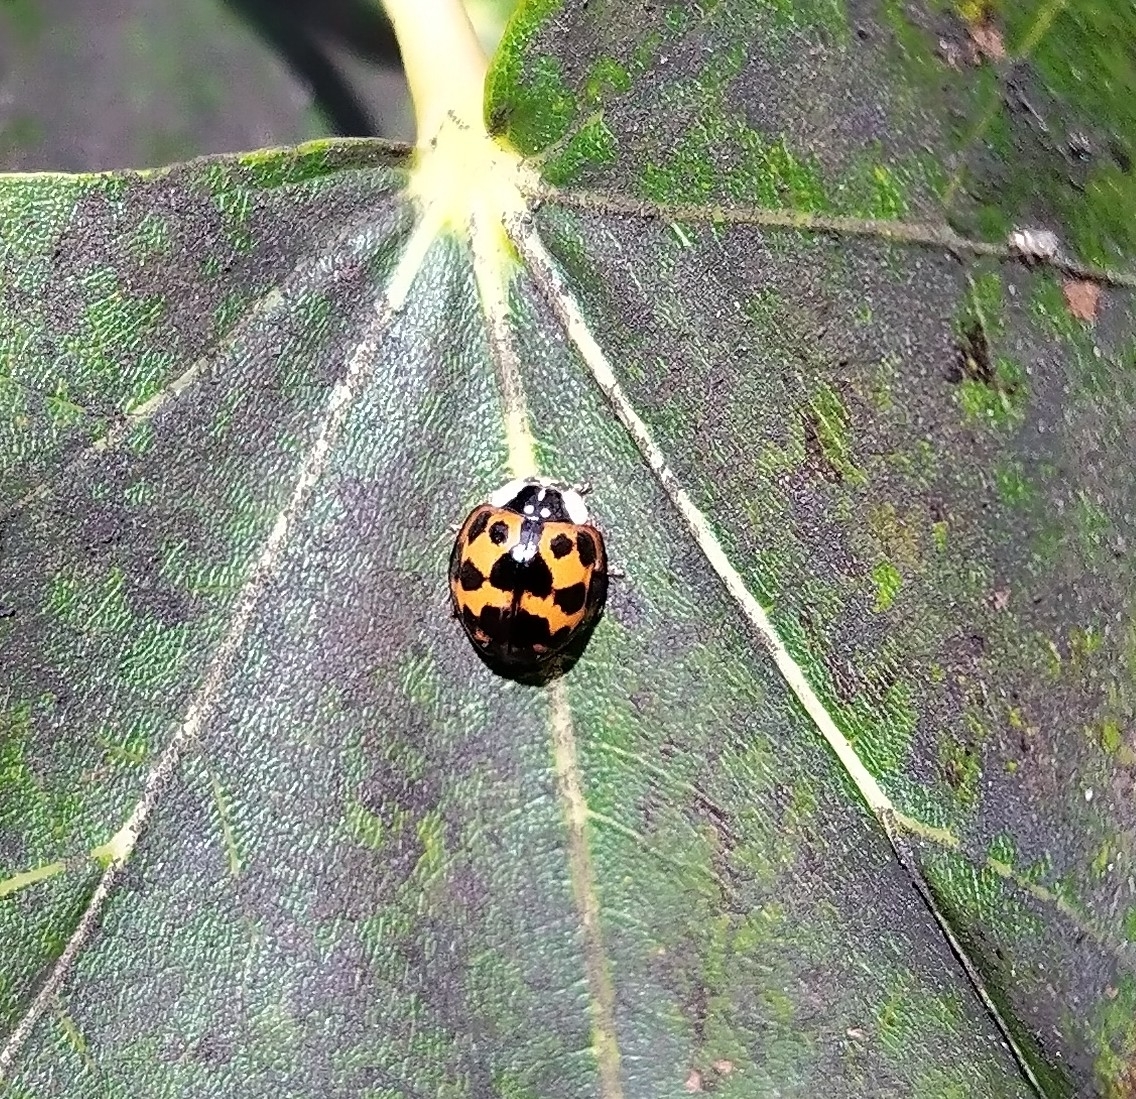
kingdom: Animalia
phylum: Arthropoda
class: Insecta
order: Coleoptera
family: Coccinellidae
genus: Harmonia
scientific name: Harmonia axyridis
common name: Harlequin ladybird
